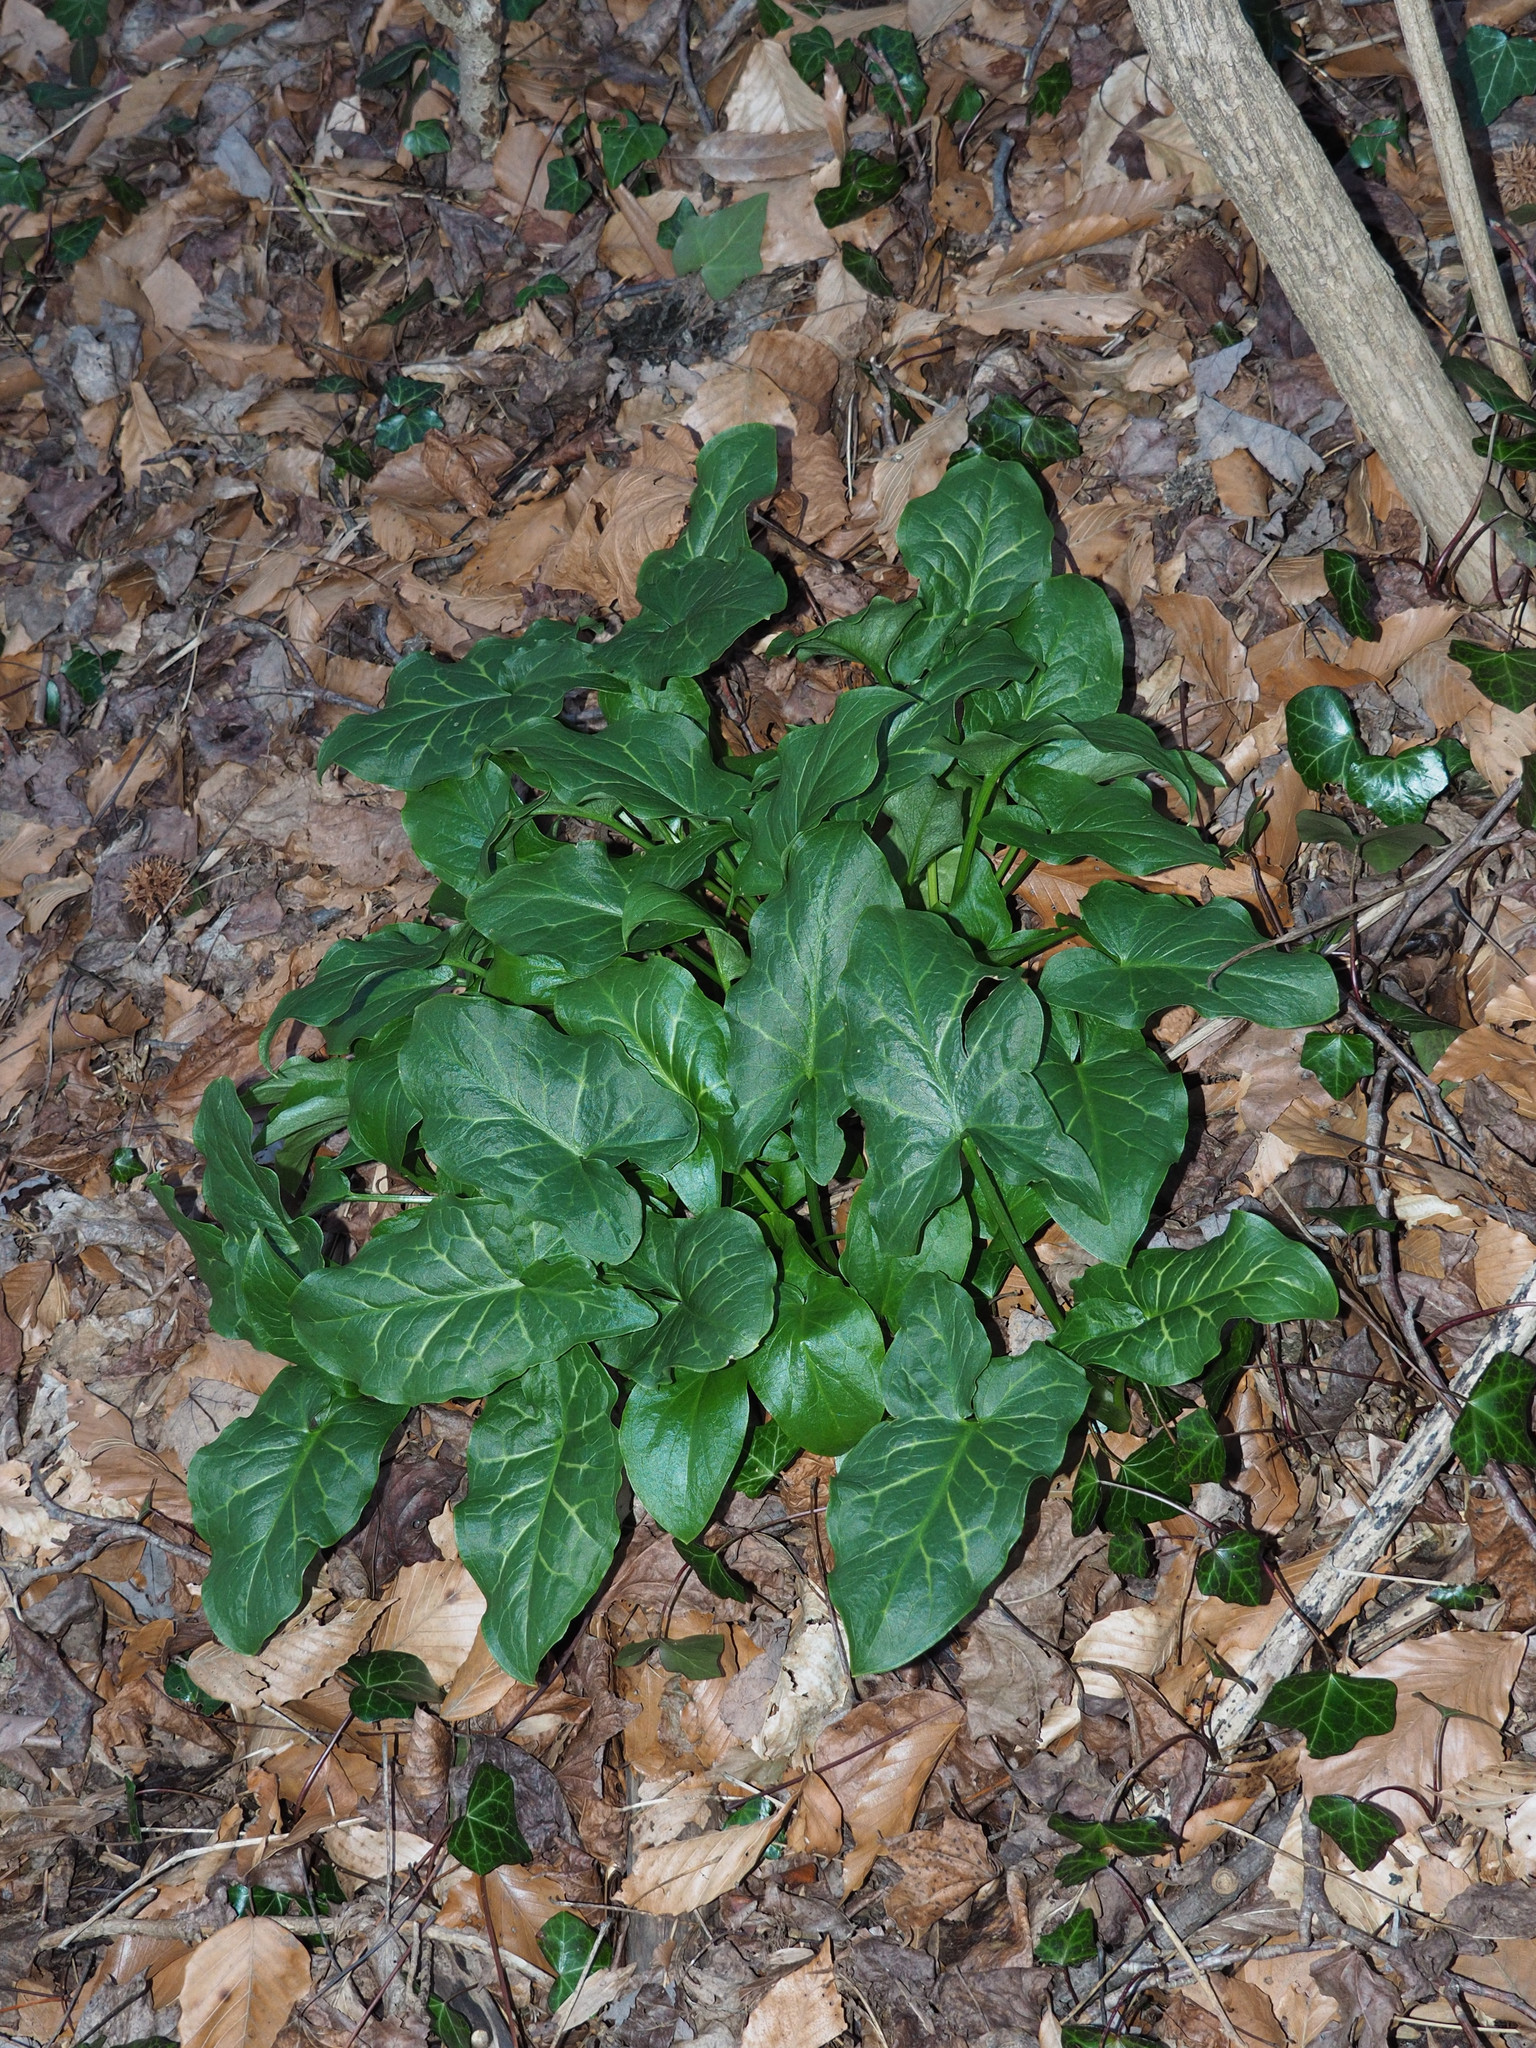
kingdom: Plantae
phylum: Tracheophyta
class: Liliopsida
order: Alismatales
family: Araceae
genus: Arum
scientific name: Arum italicum
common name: Italian lords-and-ladies
